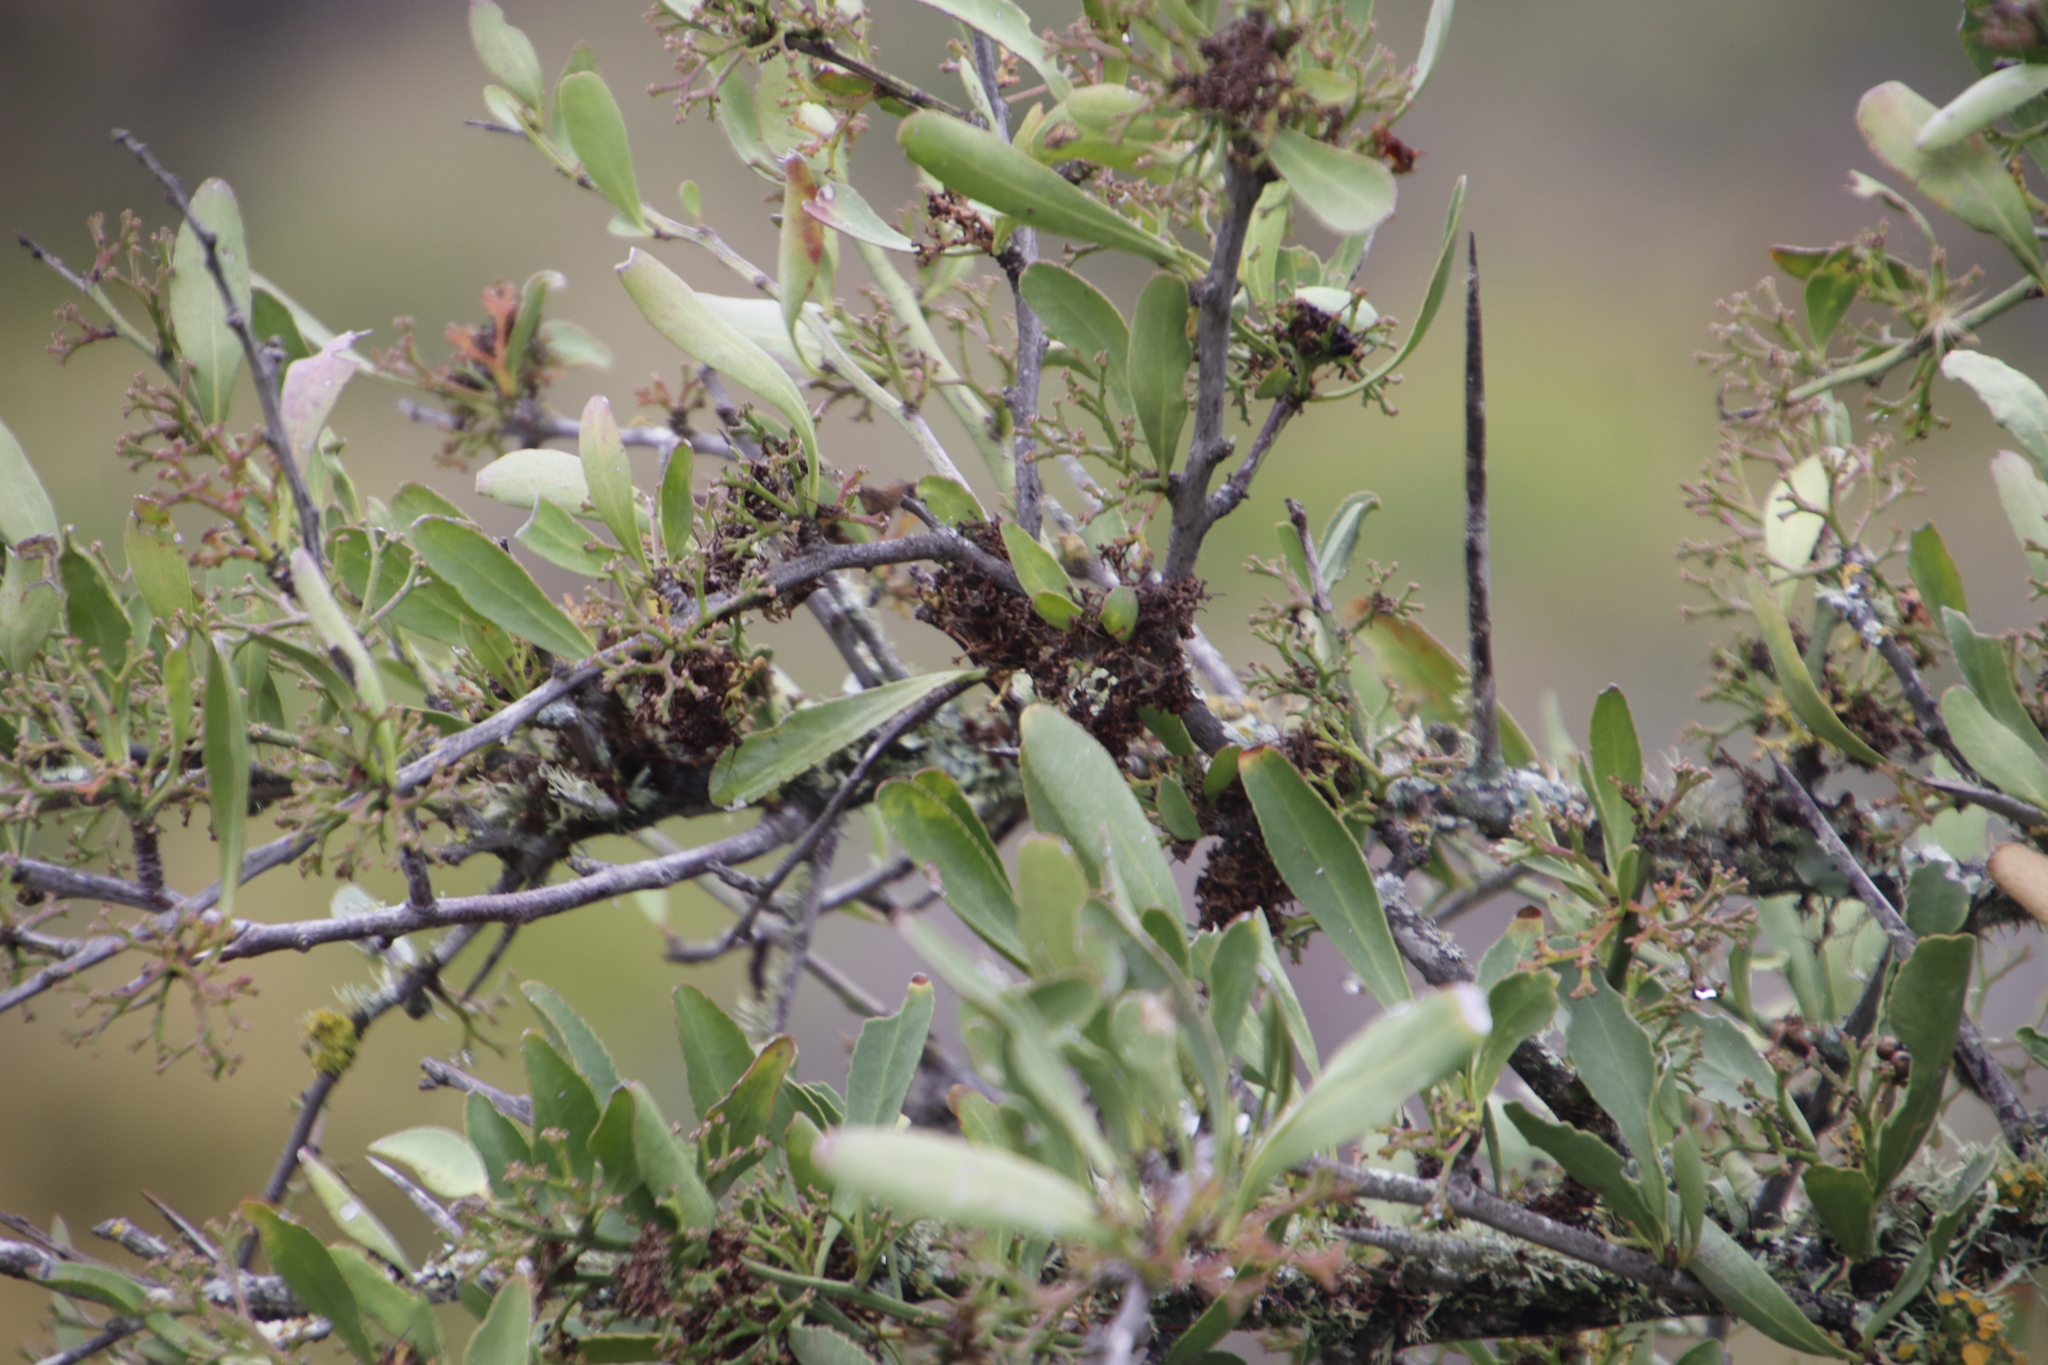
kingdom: Plantae
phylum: Tracheophyta
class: Magnoliopsida
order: Celastrales
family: Celastraceae
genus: Gymnosporia
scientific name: Gymnosporia buxifolia
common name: Common spike-thorn
